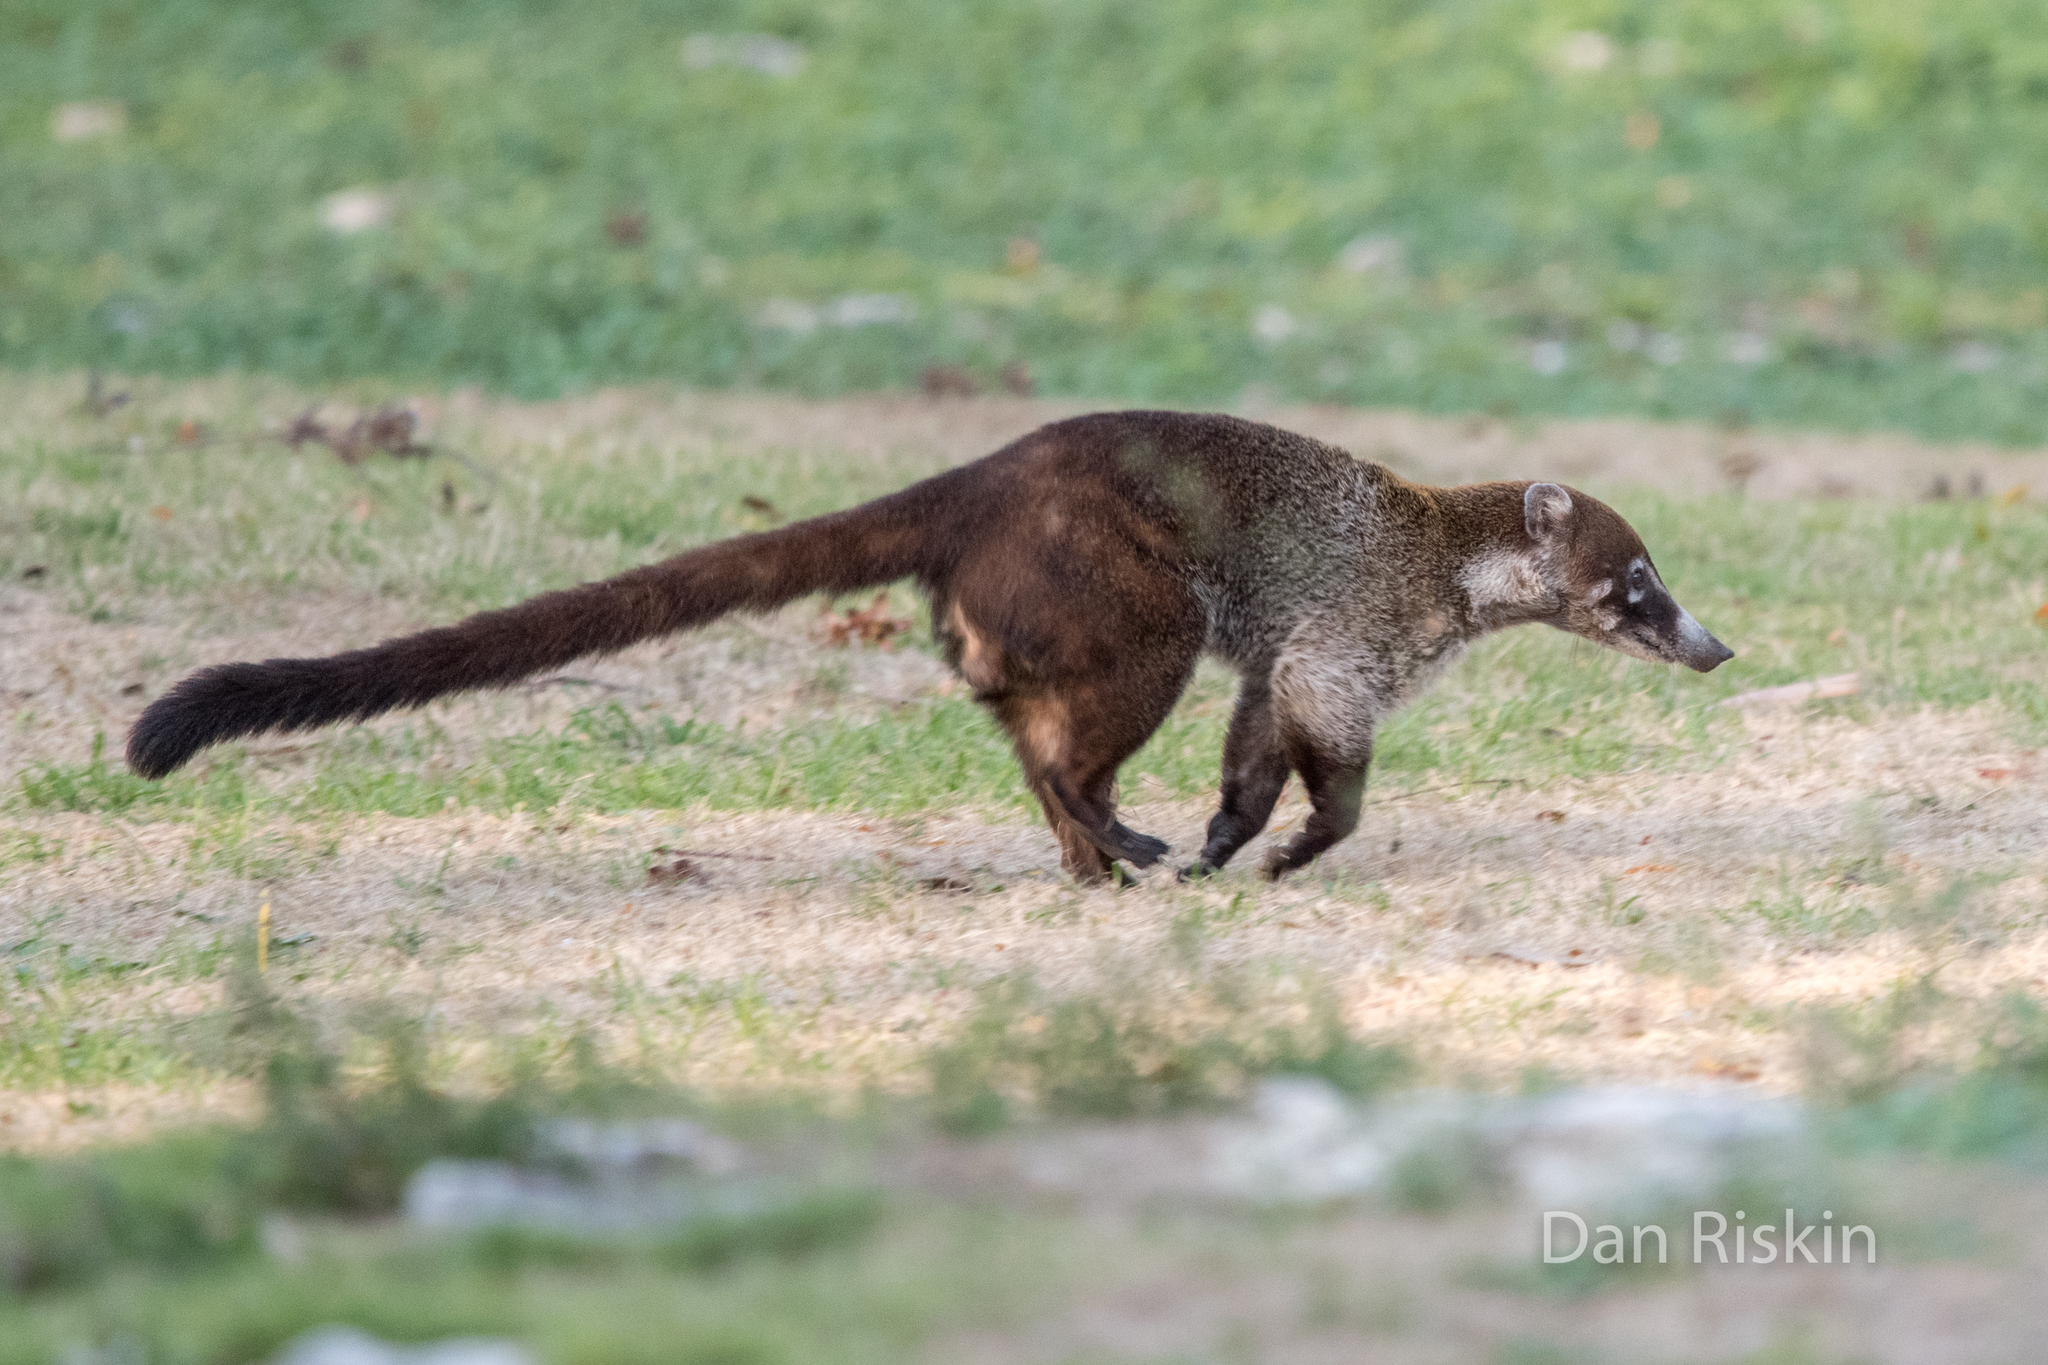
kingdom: Animalia
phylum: Chordata
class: Mammalia
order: Carnivora
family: Procyonidae
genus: Nasua
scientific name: Nasua narica
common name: White-nosed coati
